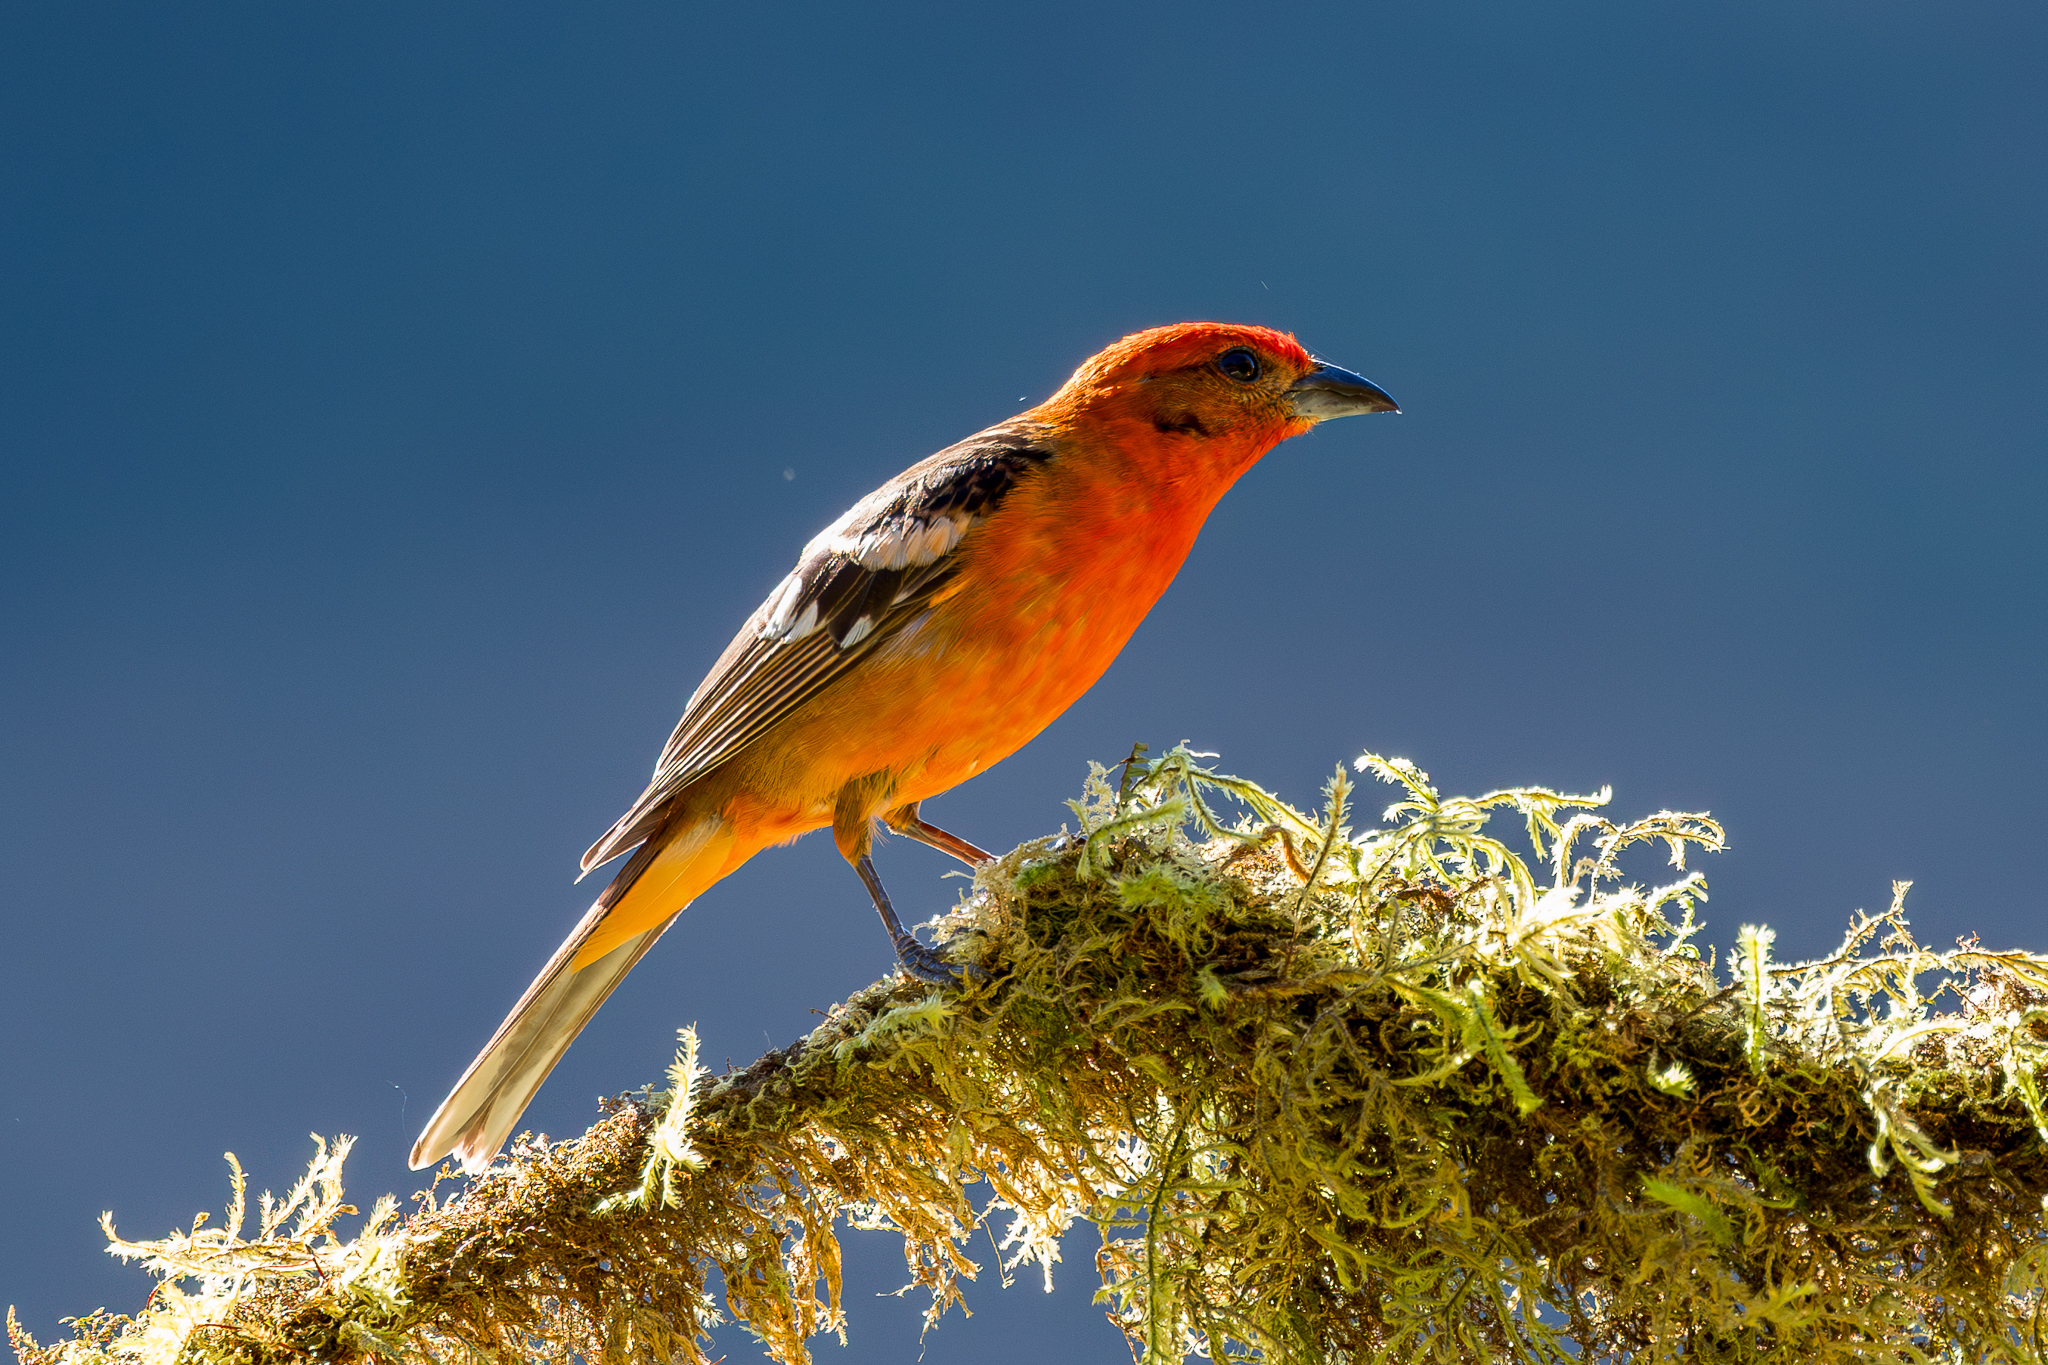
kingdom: Animalia
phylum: Chordata
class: Aves
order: Passeriformes
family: Cardinalidae
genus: Piranga
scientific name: Piranga bidentata
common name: Flame-colored tanager
